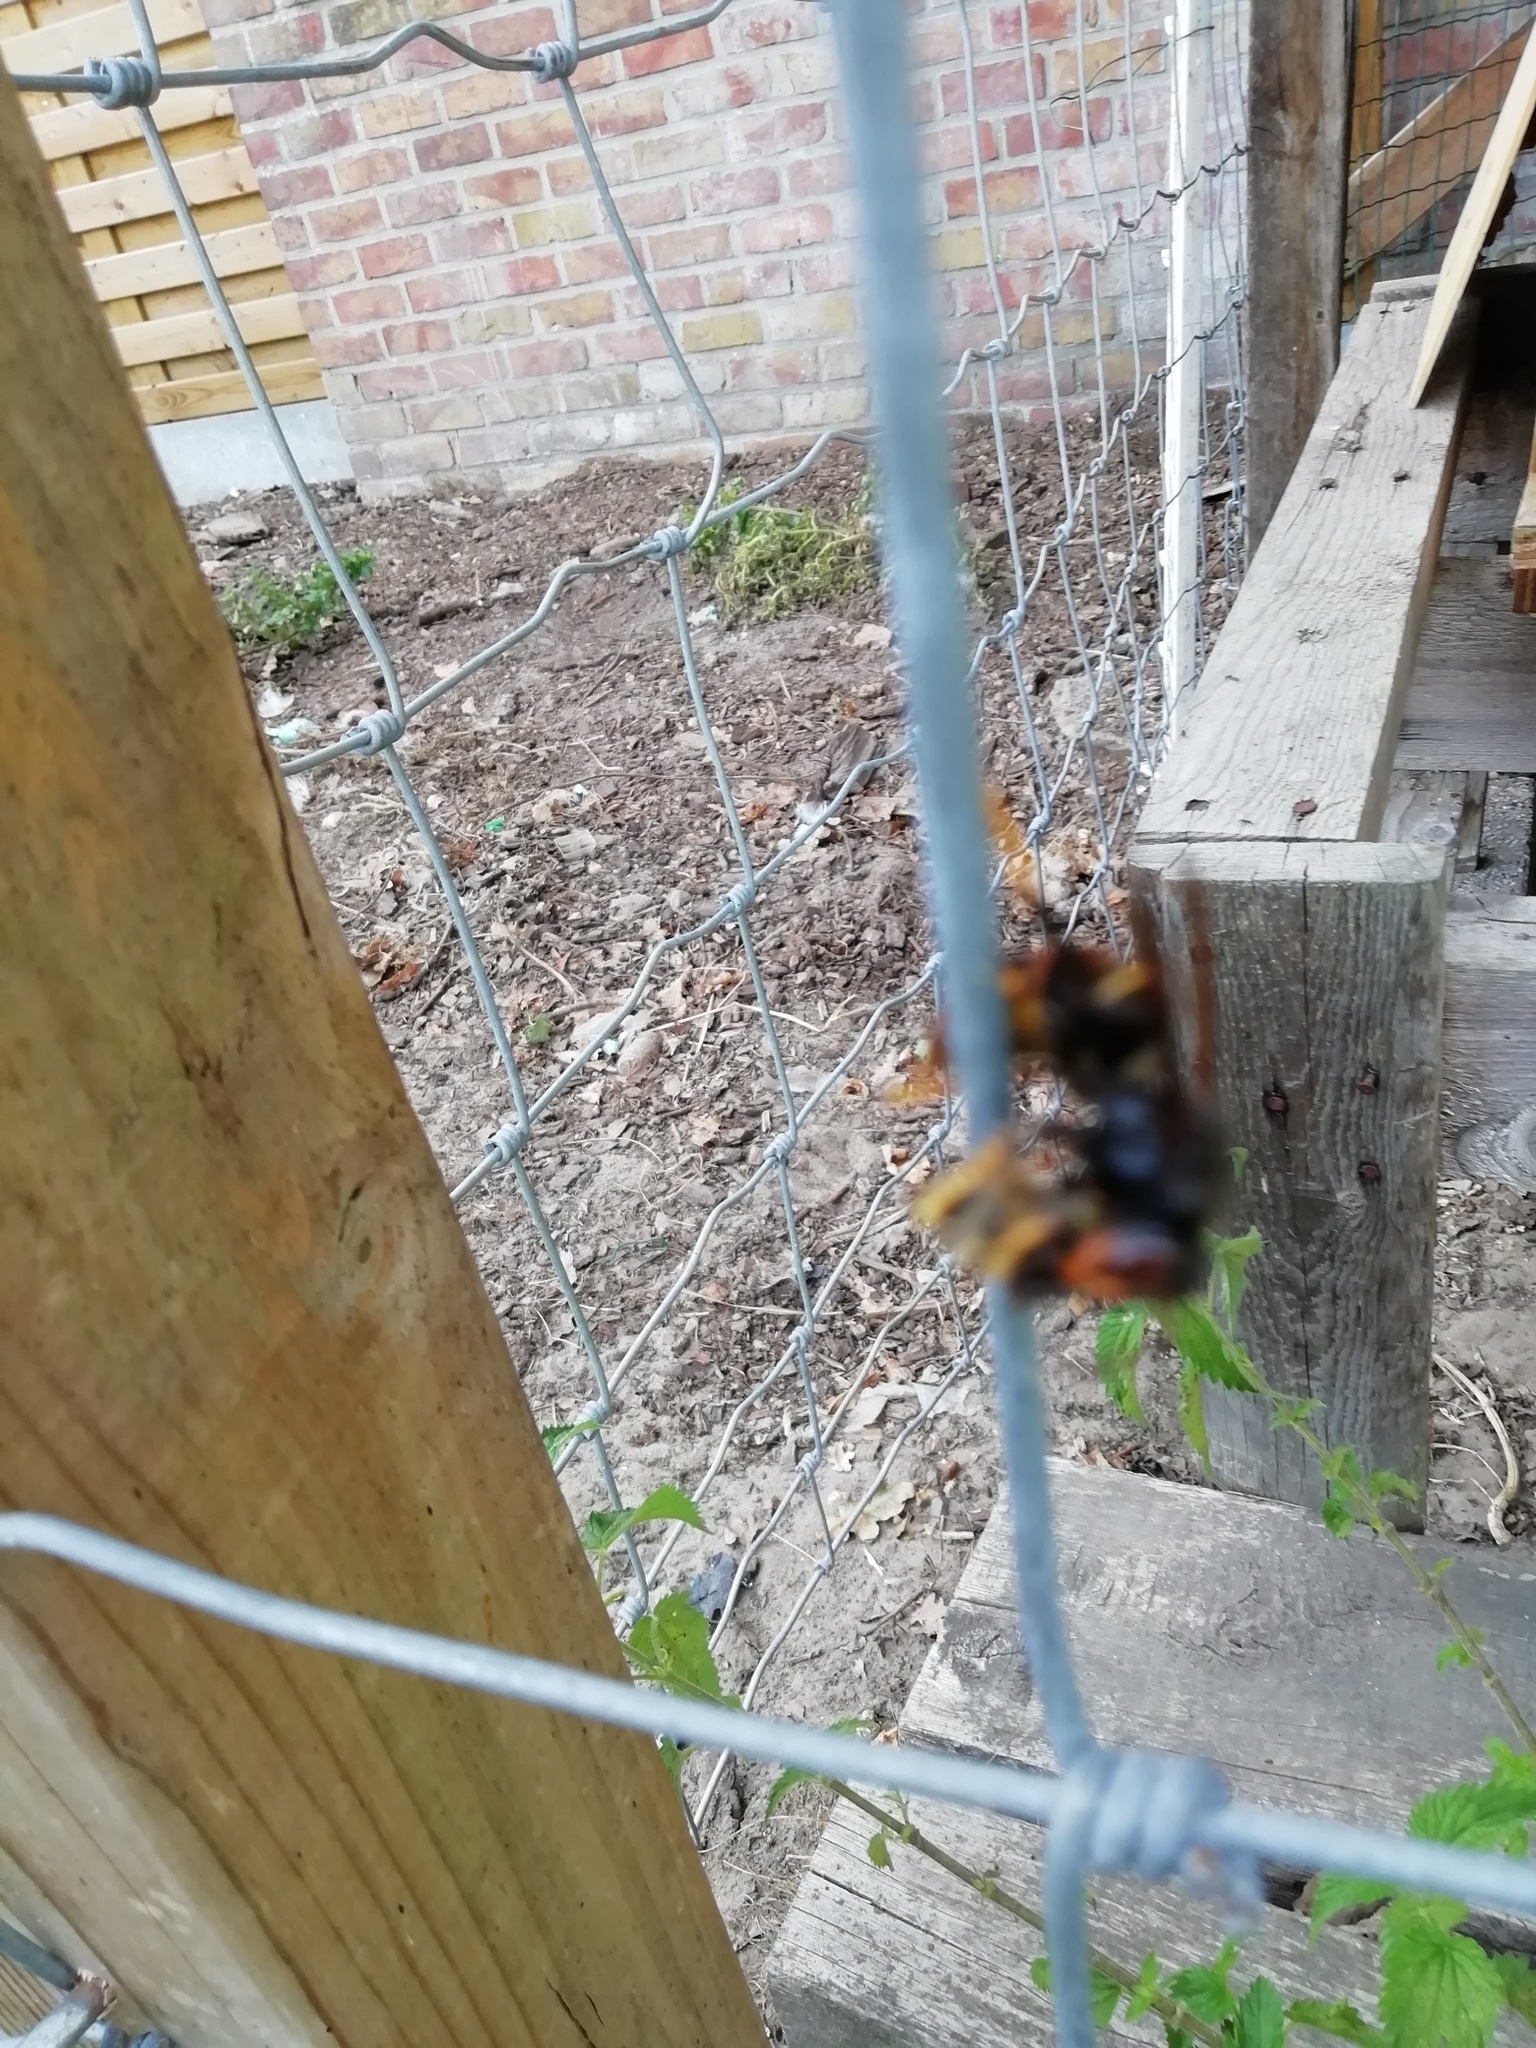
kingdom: Animalia
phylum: Arthropoda
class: Insecta
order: Hymenoptera
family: Vespidae
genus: Vespa
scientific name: Vespa velutina
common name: Asian hornet
